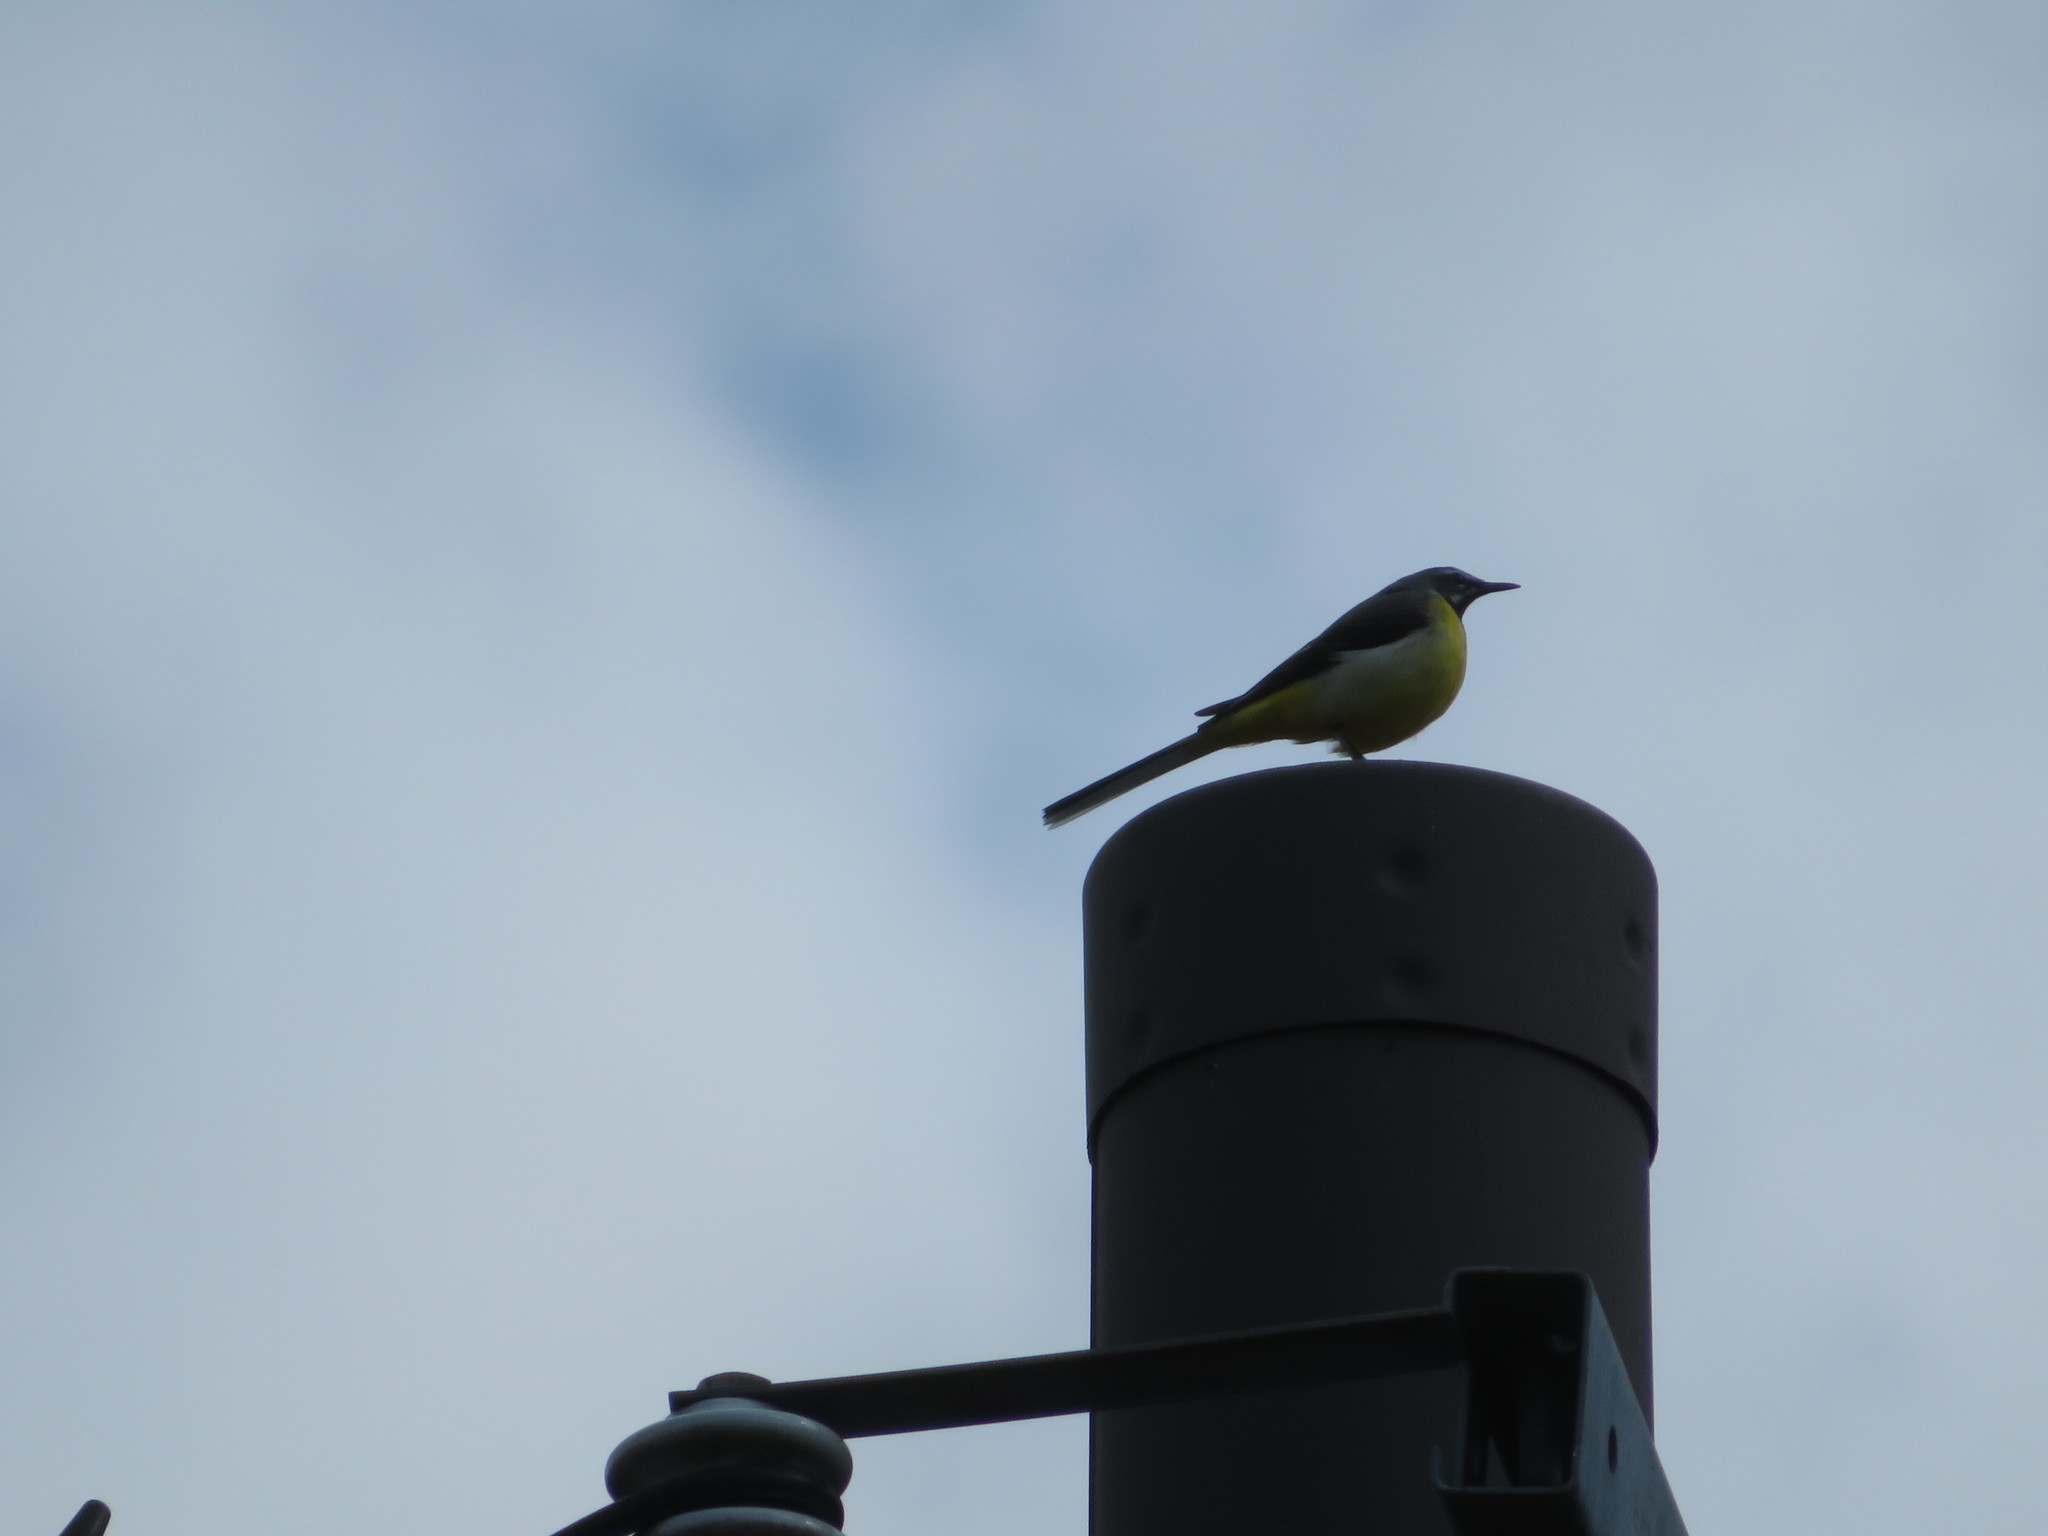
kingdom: Animalia
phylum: Chordata
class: Aves
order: Passeriformes
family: Motacillidae
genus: Motacilla
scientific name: Motacilla cinerea
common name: Grey wagtail
